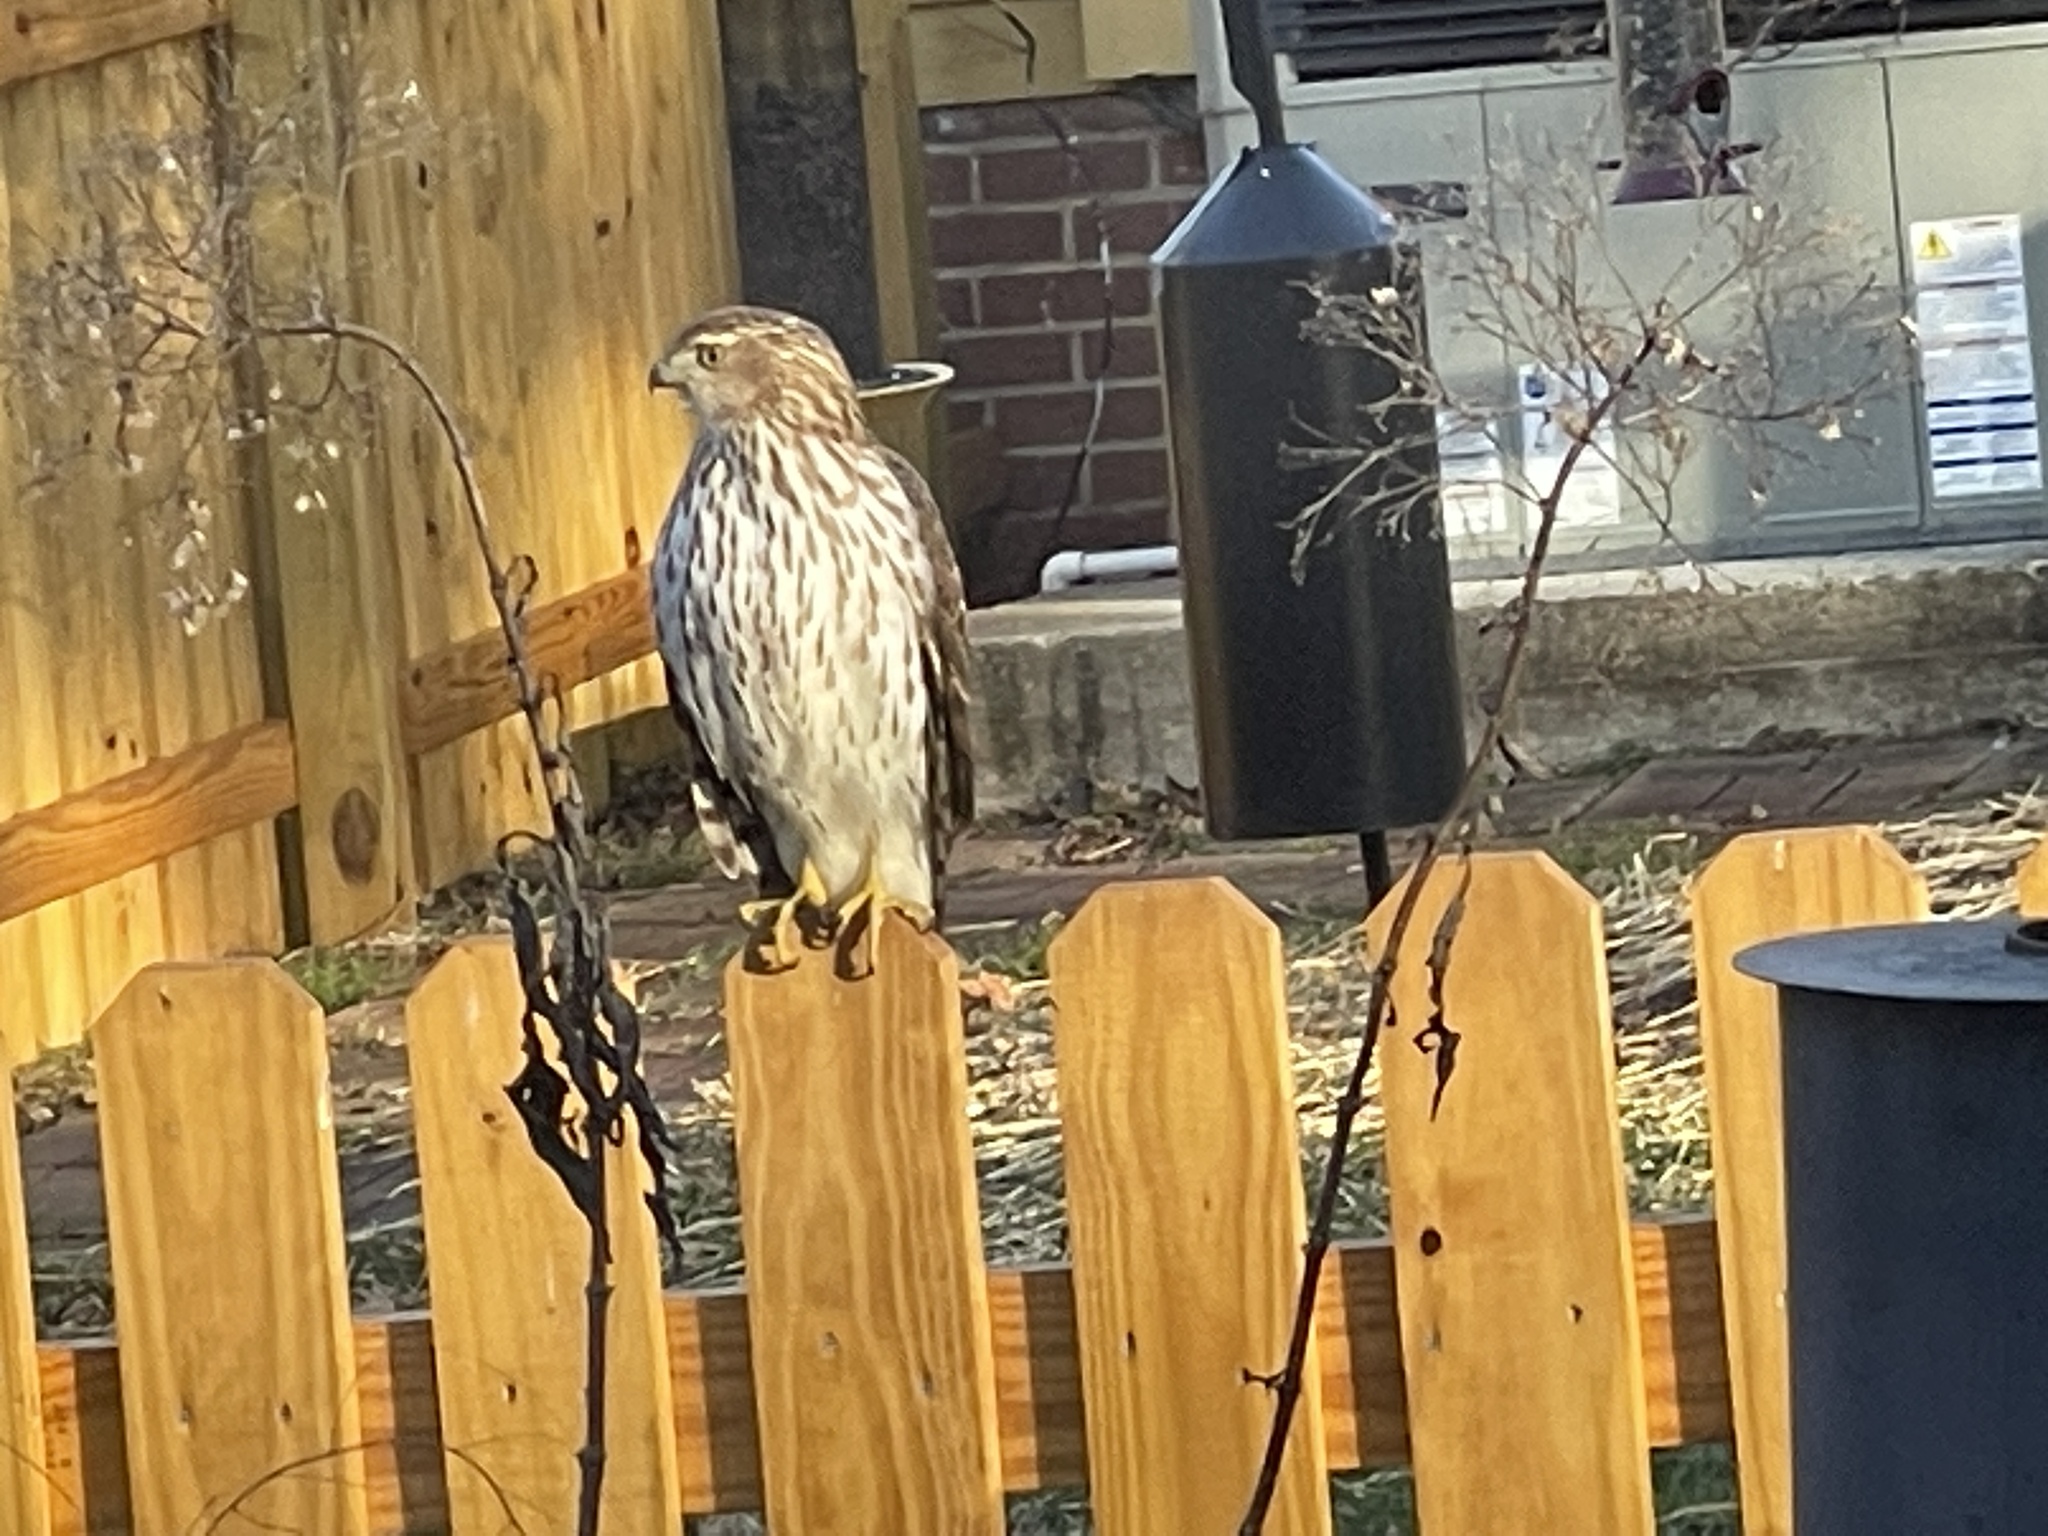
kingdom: Animalia
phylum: Chordata
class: Aves
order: Accipitriformes
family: Accipitridae
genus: Accipiter
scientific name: Accipiter cooperii
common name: Cooper's hawk
